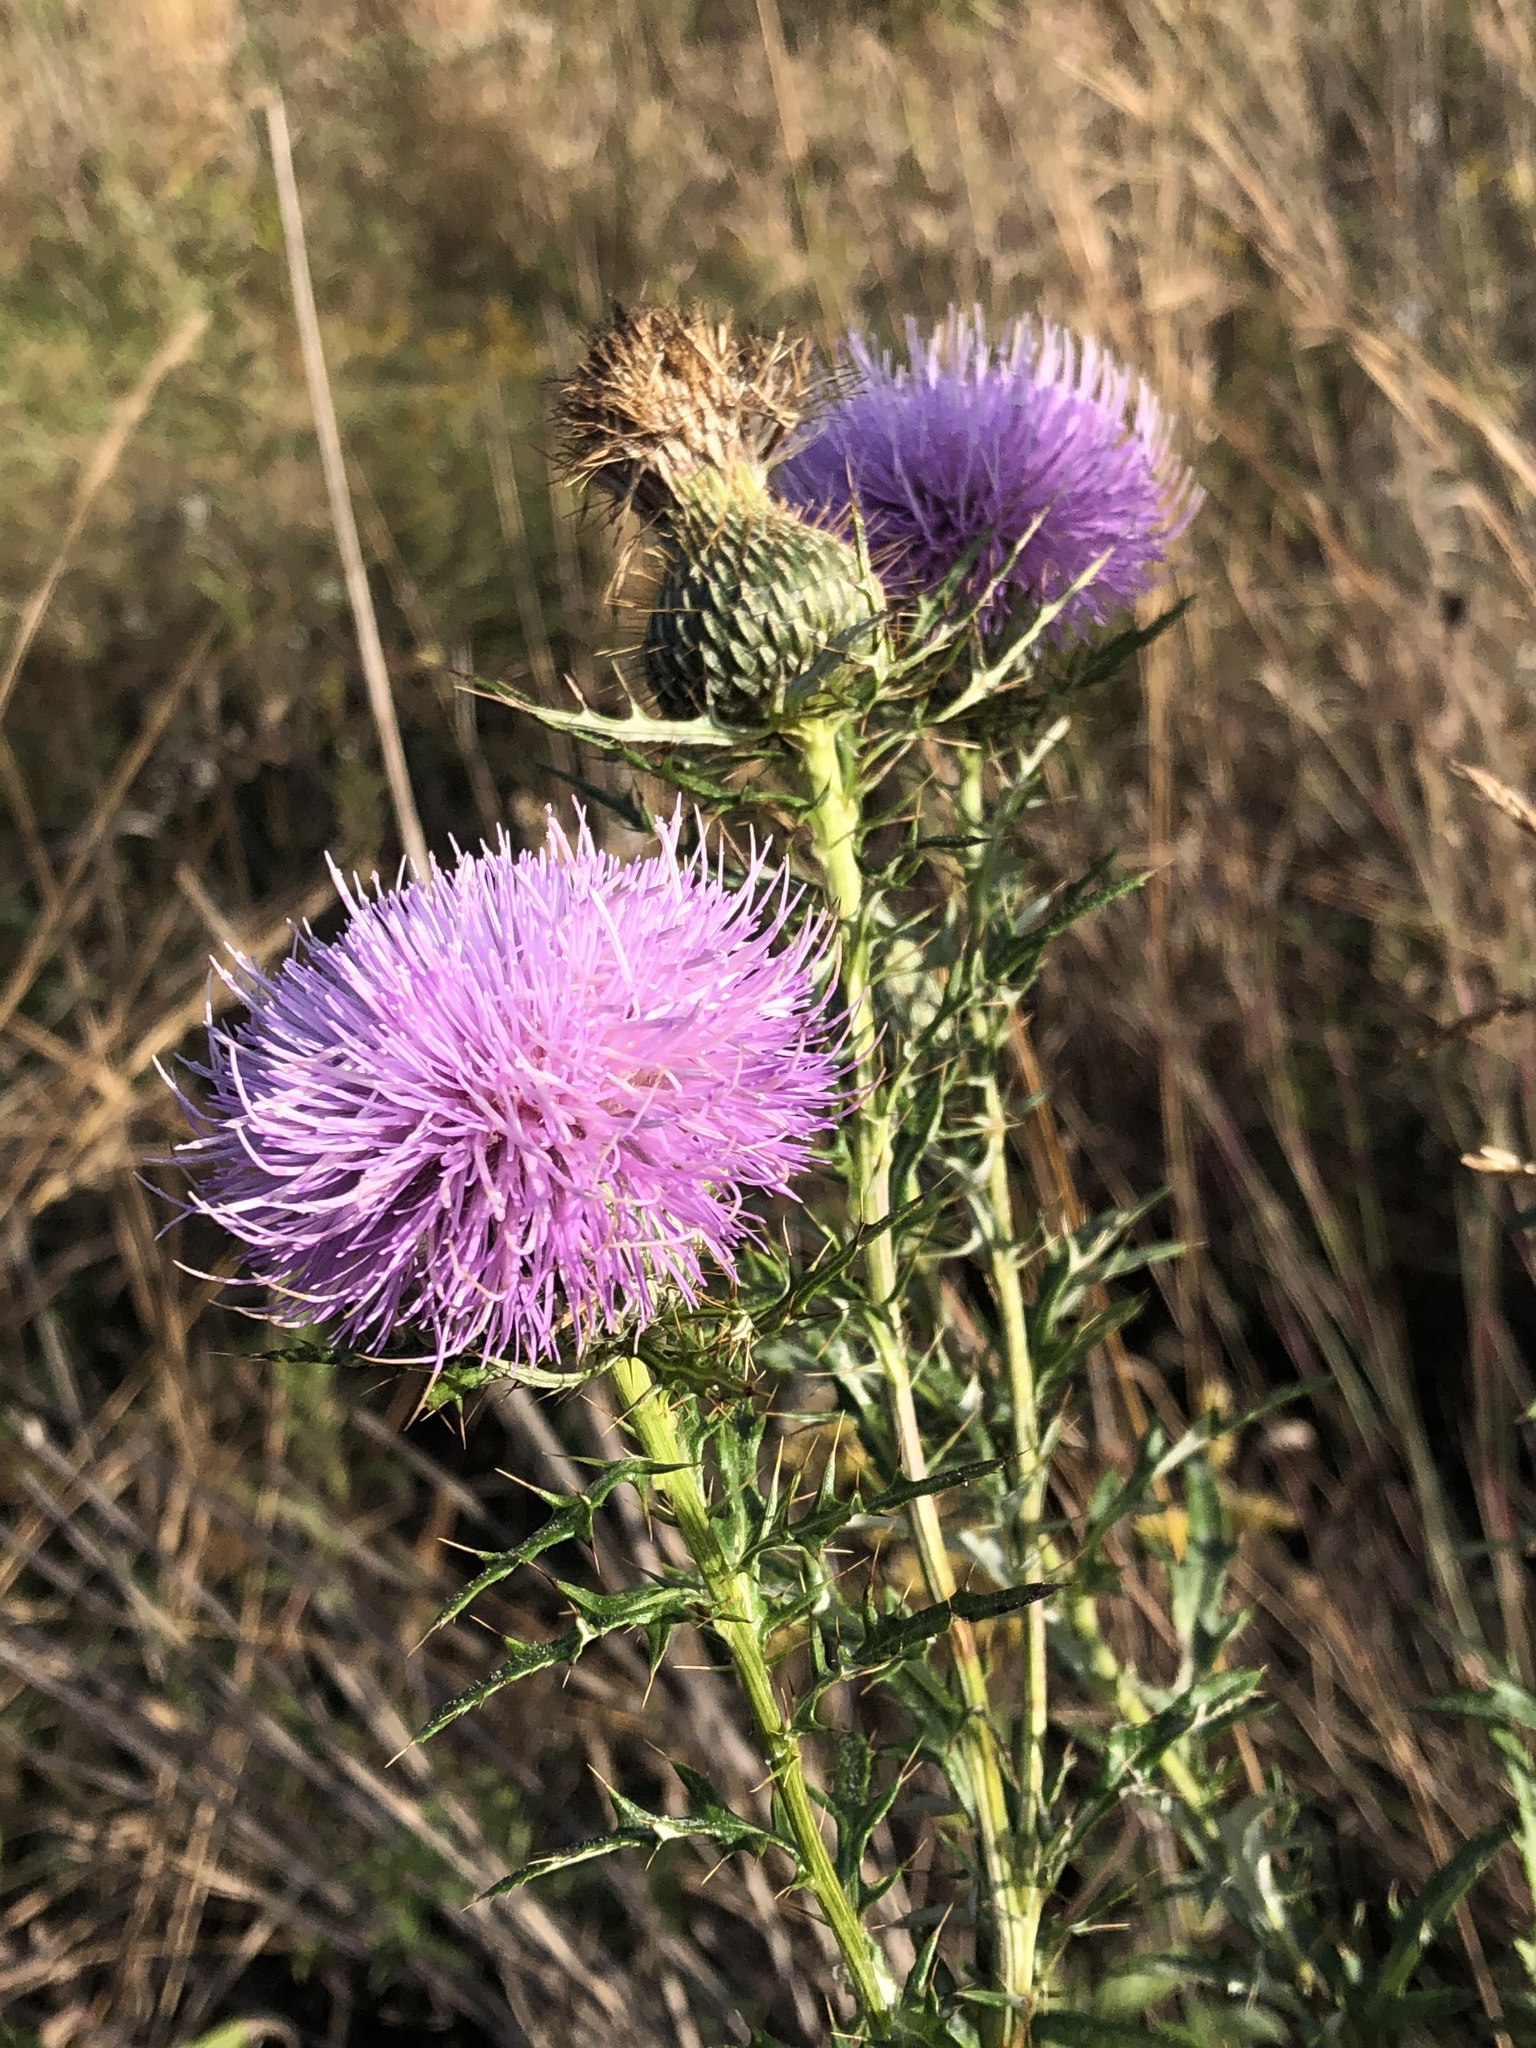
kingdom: Plantae
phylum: Tracheophyta
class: Magnoliopsida
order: Asterales
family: Asteraceae
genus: Cirsium
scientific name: Cirsium discolor
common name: Field thistle
